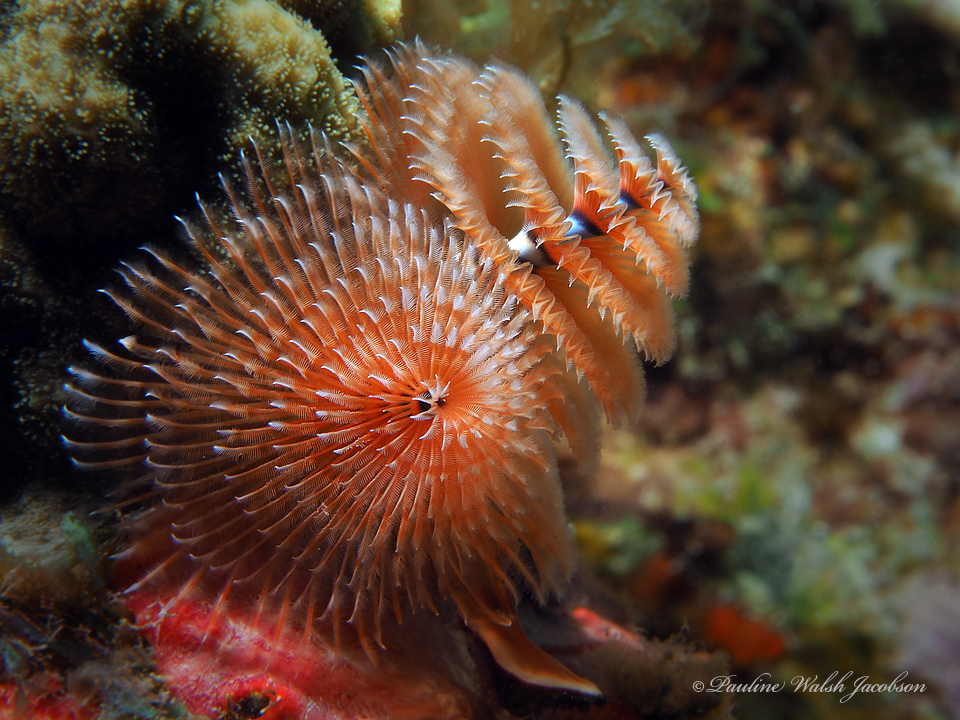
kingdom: Animalia
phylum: Annelida
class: Polychaeta
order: Sabellida
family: Serpulidae
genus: Spirobranchus
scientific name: Spirobranchus giganteus
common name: Christmas tree worm
